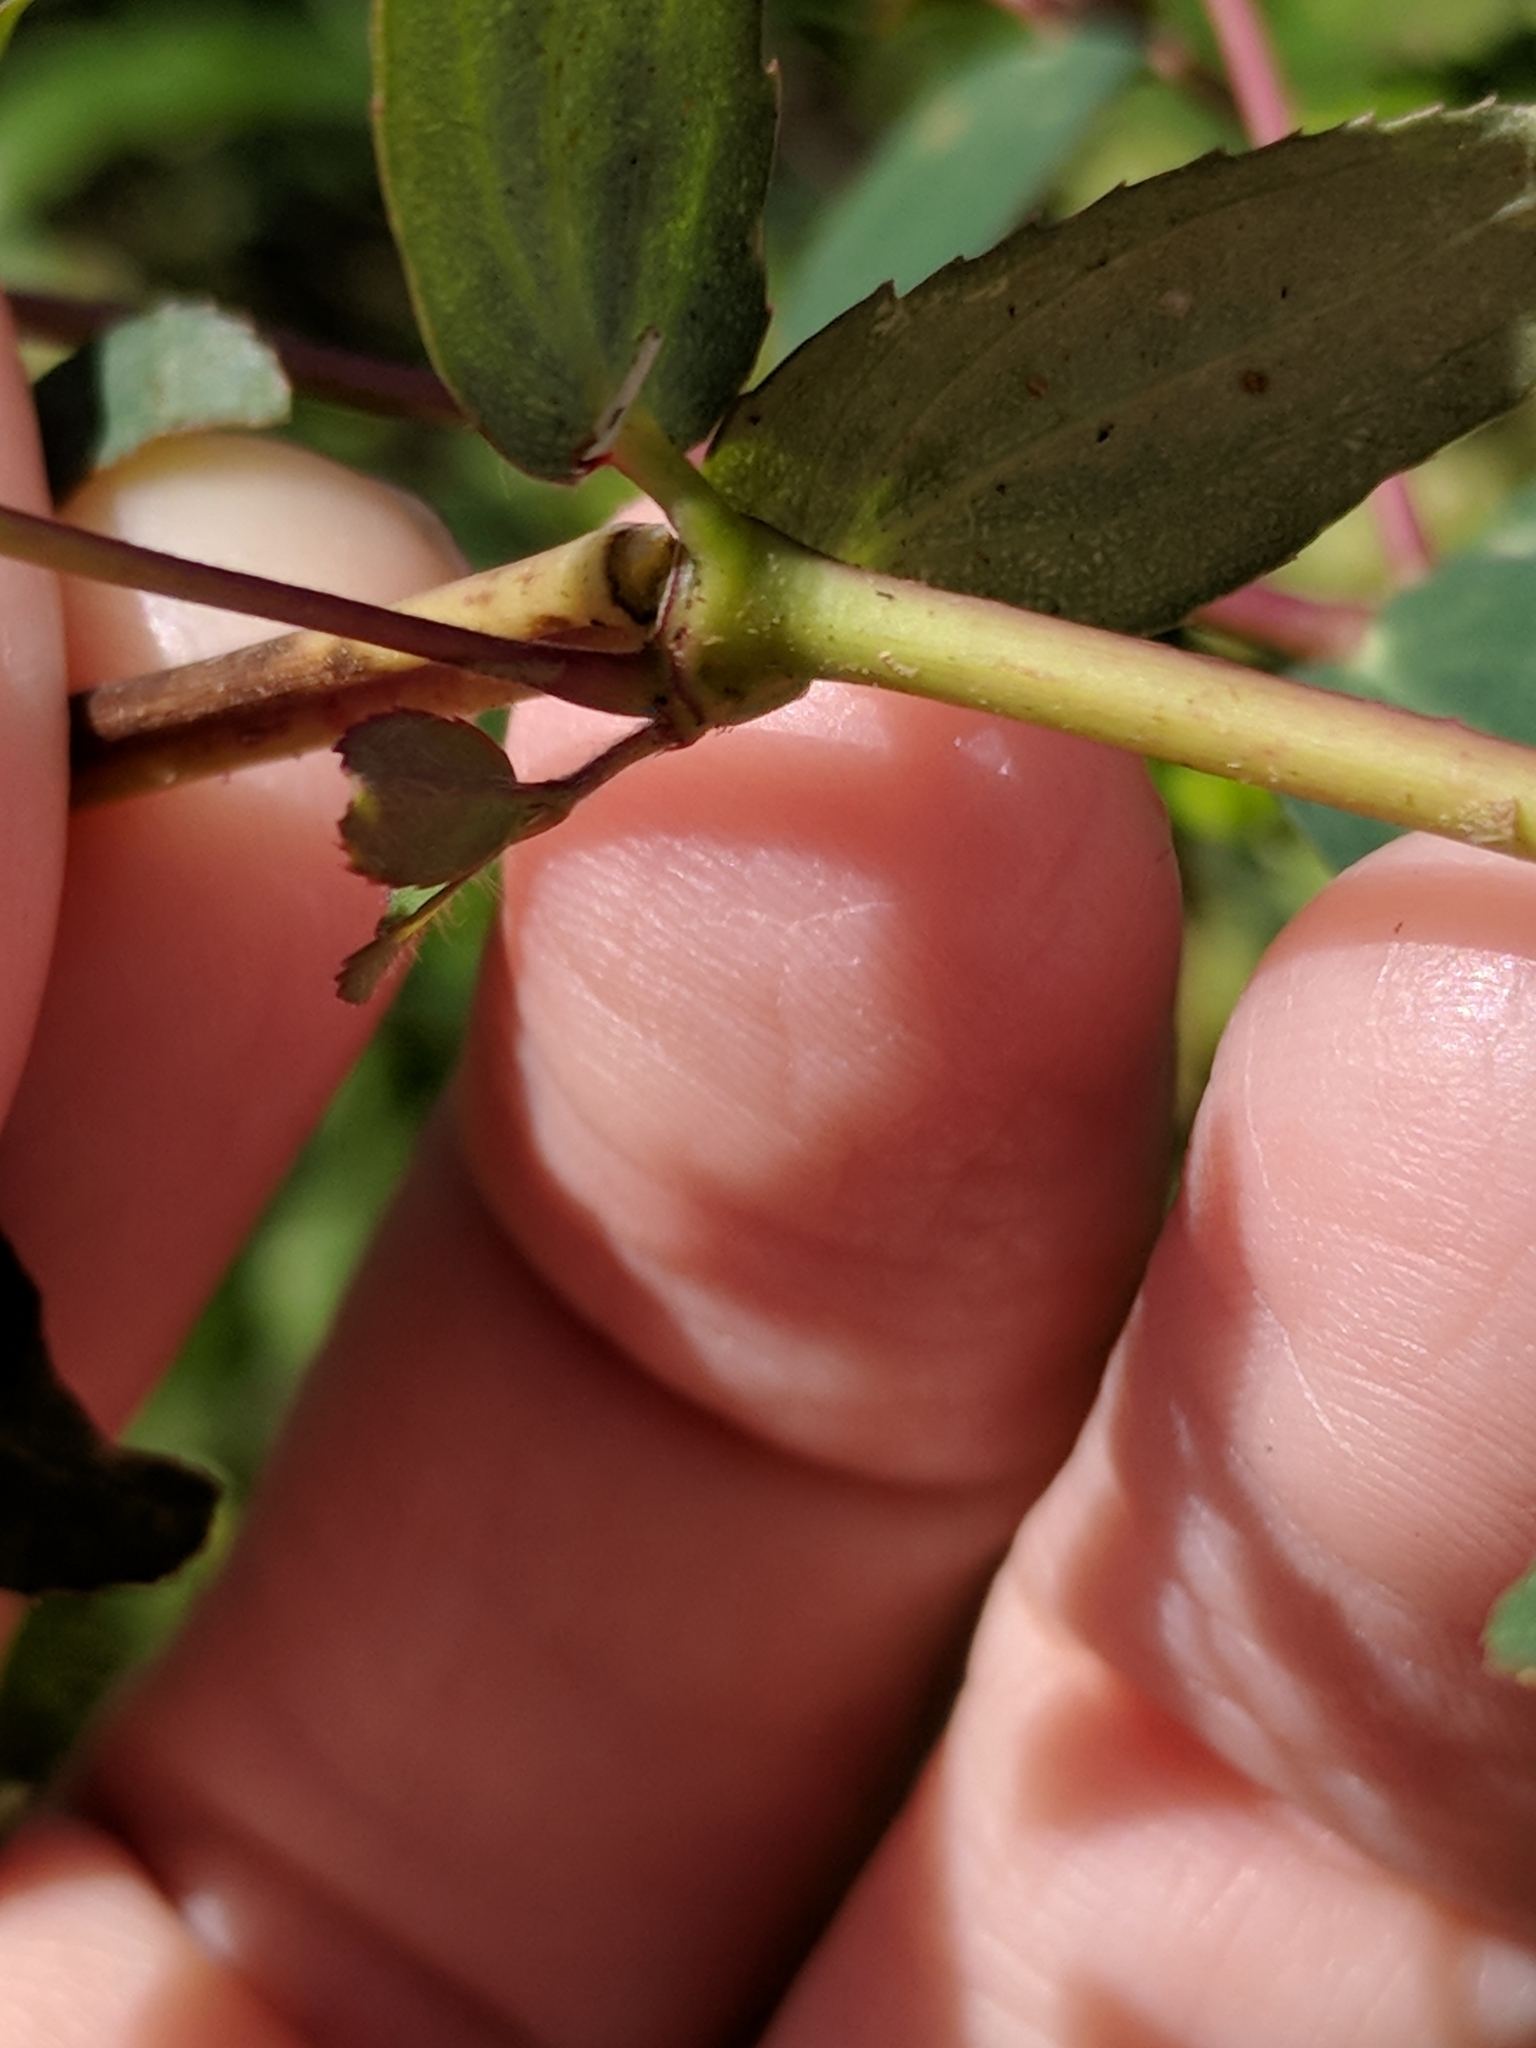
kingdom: Plantae
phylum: Tracheophyta
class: Magnoliopsida
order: Malpighiales
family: Euphorbiaceae
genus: Euphorbia
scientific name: Euphorbia nutans
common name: Eyebane
